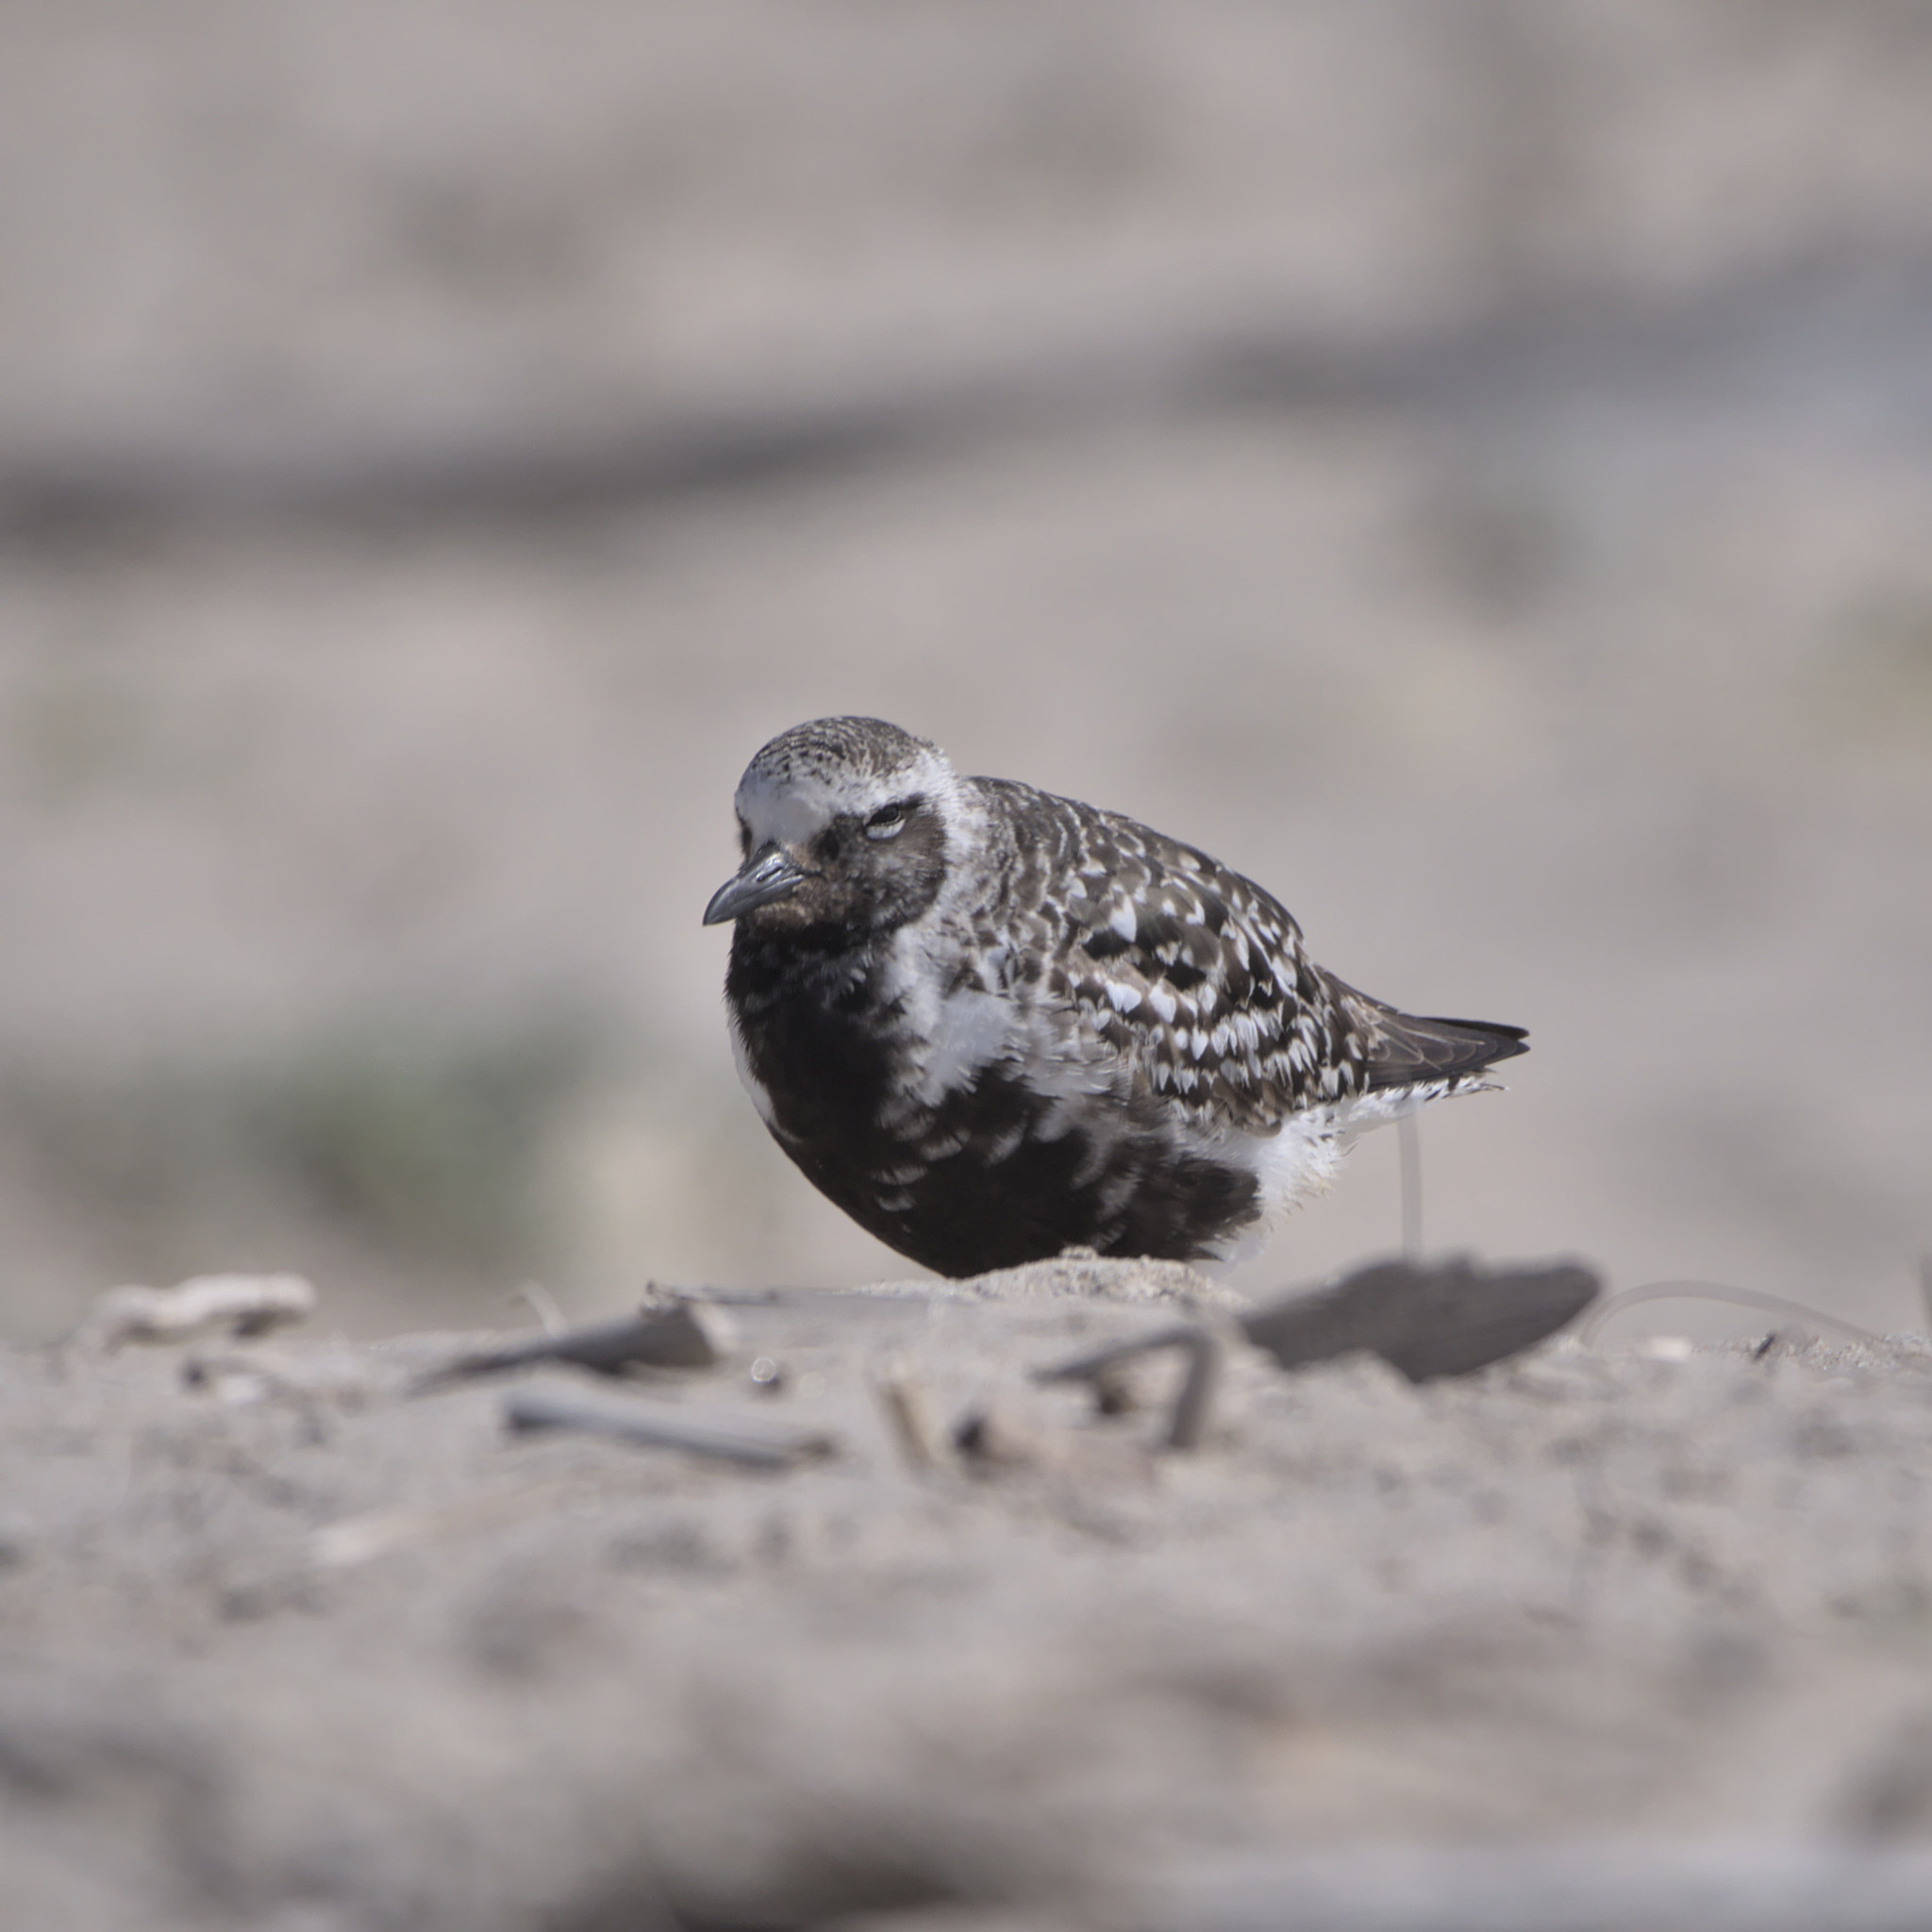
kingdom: Animalia
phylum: Chordata
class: Aves
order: Charadriiformes
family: Charadriidae
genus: Pluvialis
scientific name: Pluvialis squatarola
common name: Grey plover
